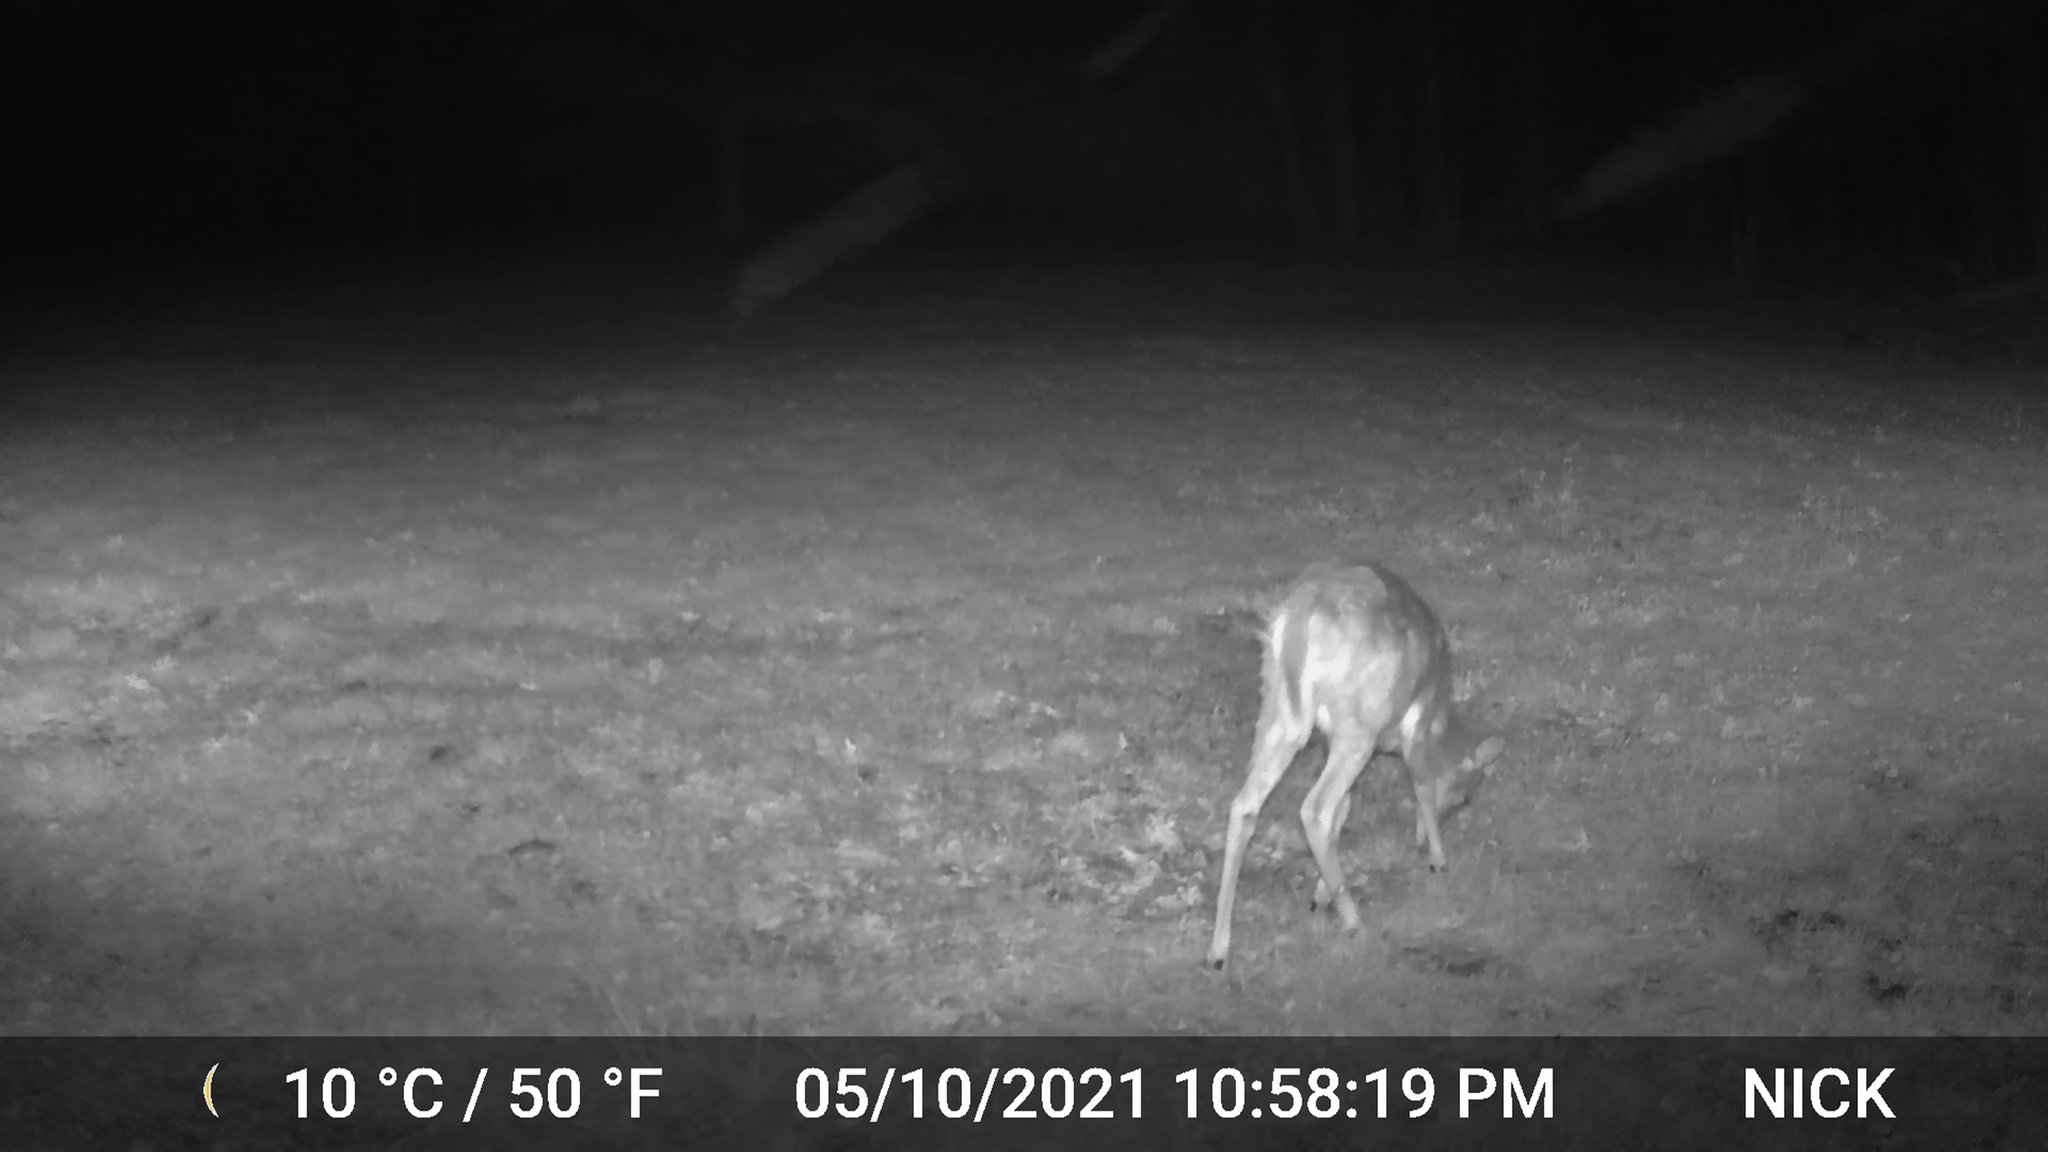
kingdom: Animalia
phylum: Chordata
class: Mammalia
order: Artiodactyla
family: Cervidae
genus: Odocoileus
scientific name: Odocoileus virginianus
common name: White-tailed deer
